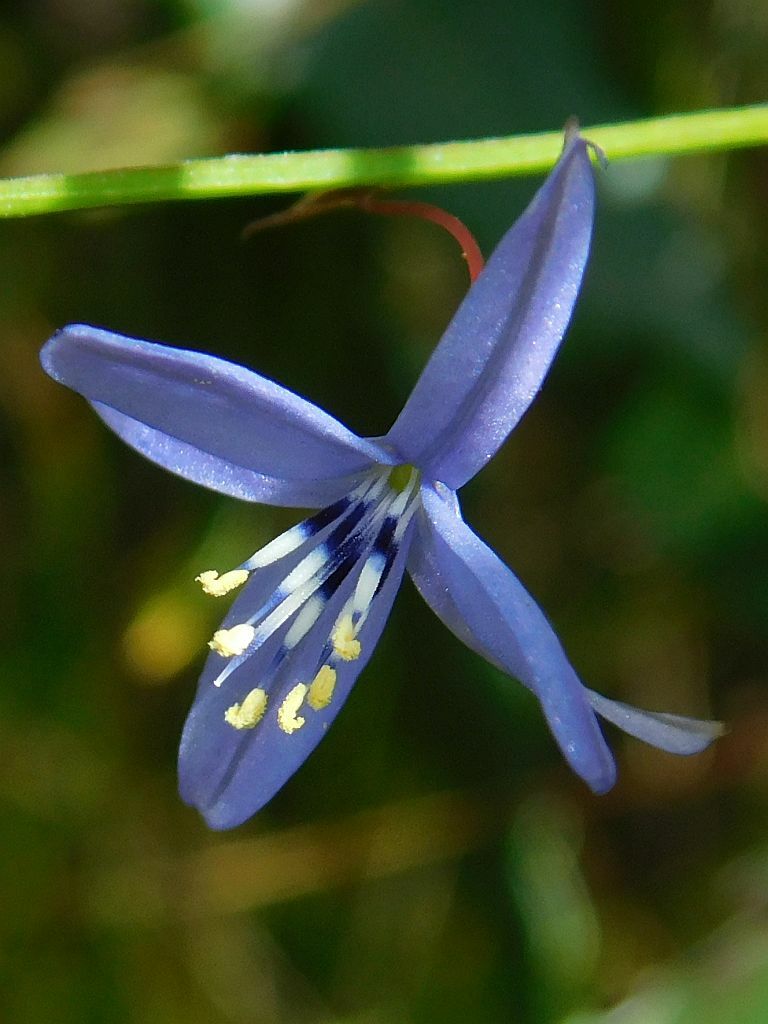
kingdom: Plantae
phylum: Tracheophyta
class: Liliopsida
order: Asparagales
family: Asphodelaceae
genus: Caesia
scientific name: Caesia contorta
